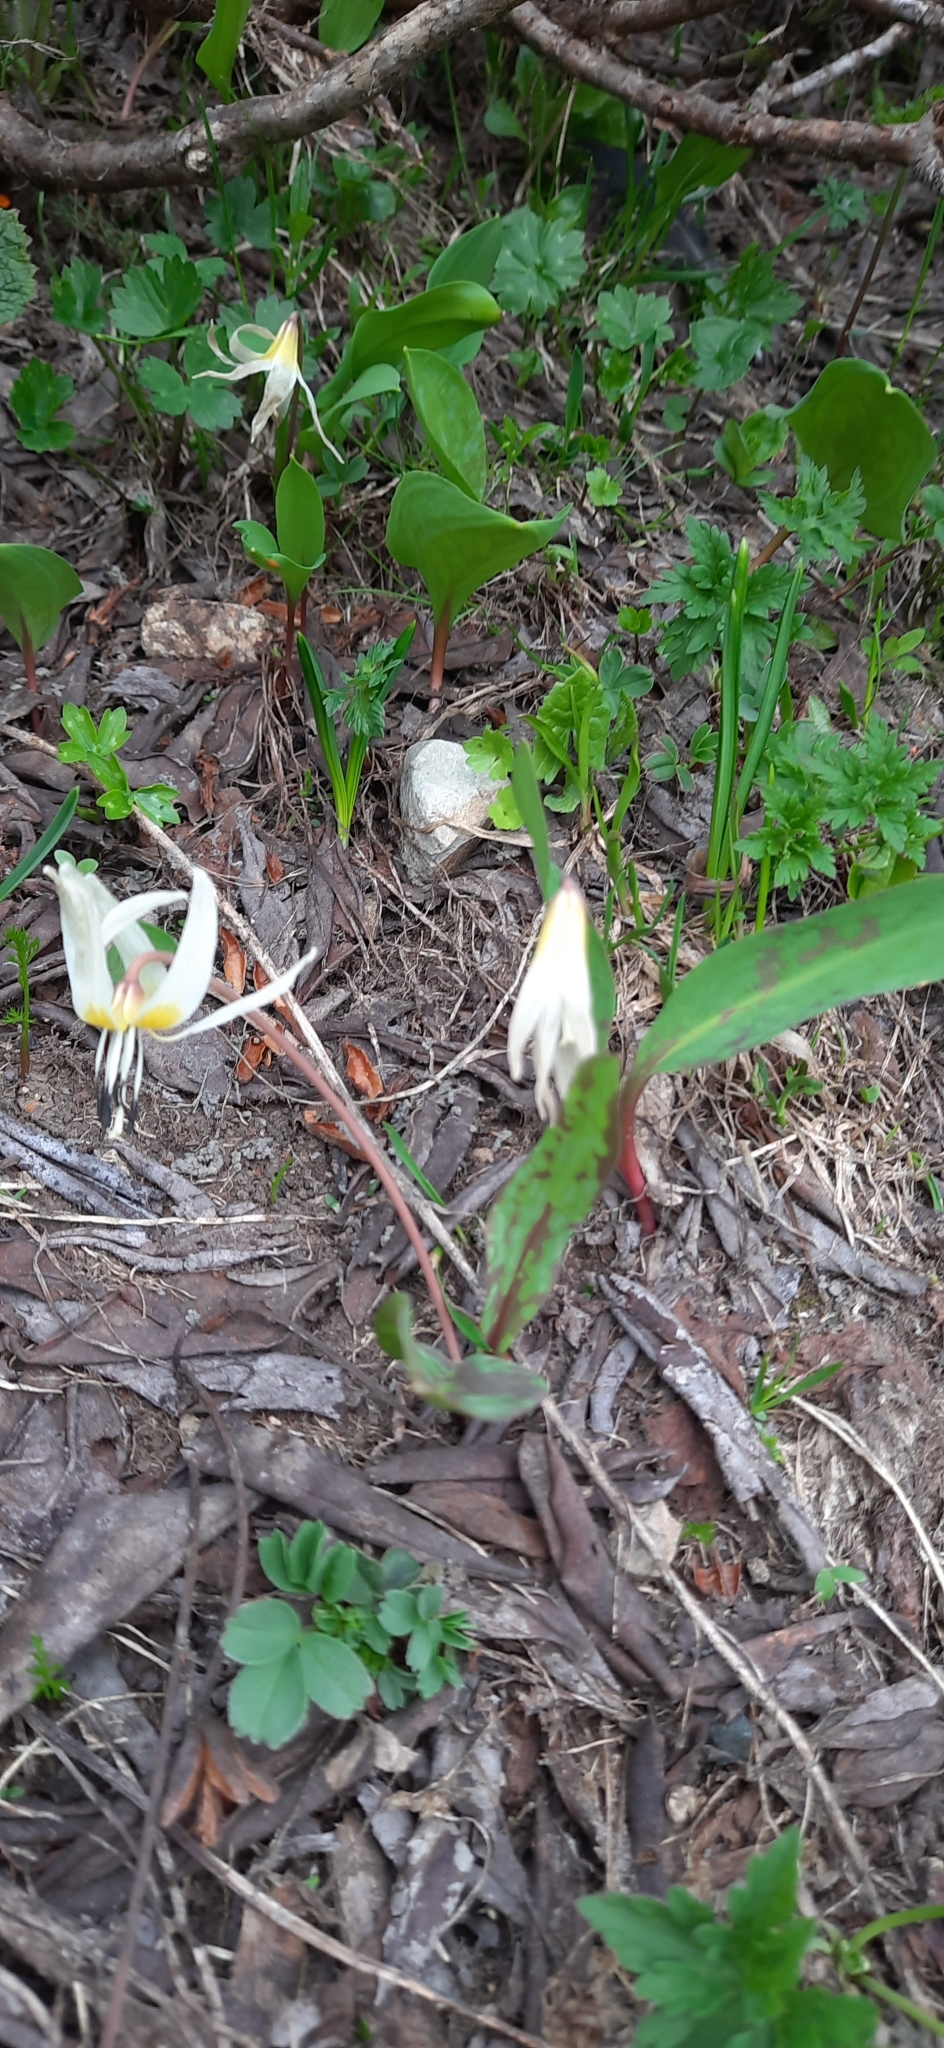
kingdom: Plantae
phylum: Tracheophyta
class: Liliopsida
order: Liliales
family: Liliaceae
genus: Erythronium
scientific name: Erythronium caucasicum
